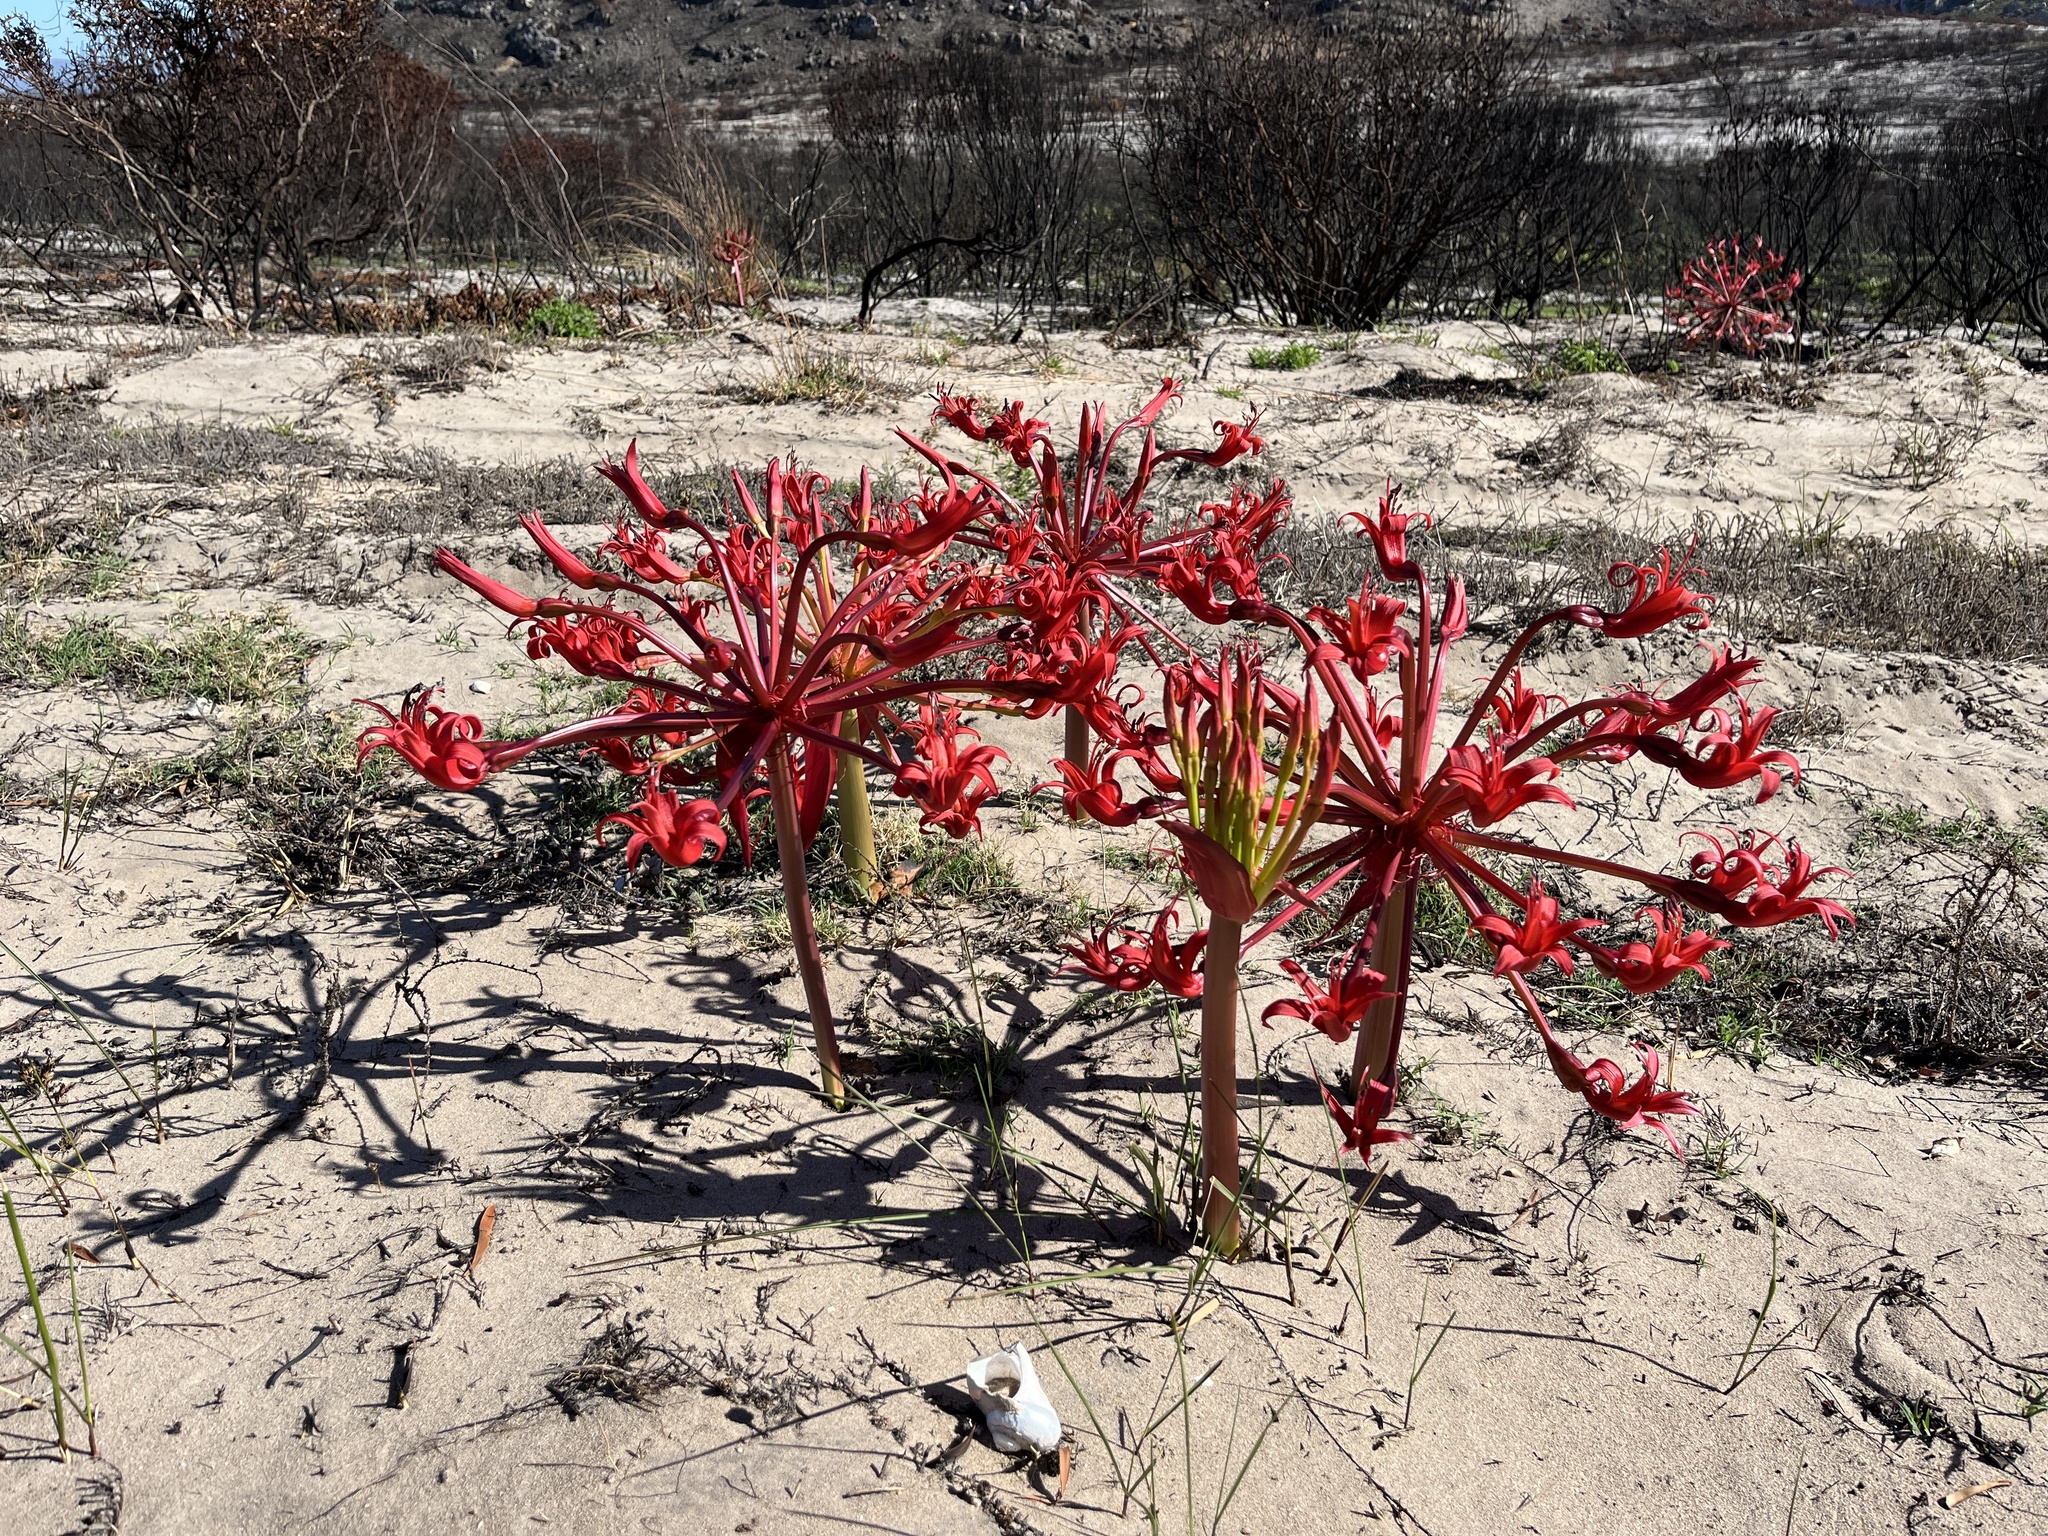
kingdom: Plantae
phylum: Tracheophyta
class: Liliopsida
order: Asparagales
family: Amaryllidaceae
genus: Brunsvigia
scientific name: Brunsvigia orientalis
